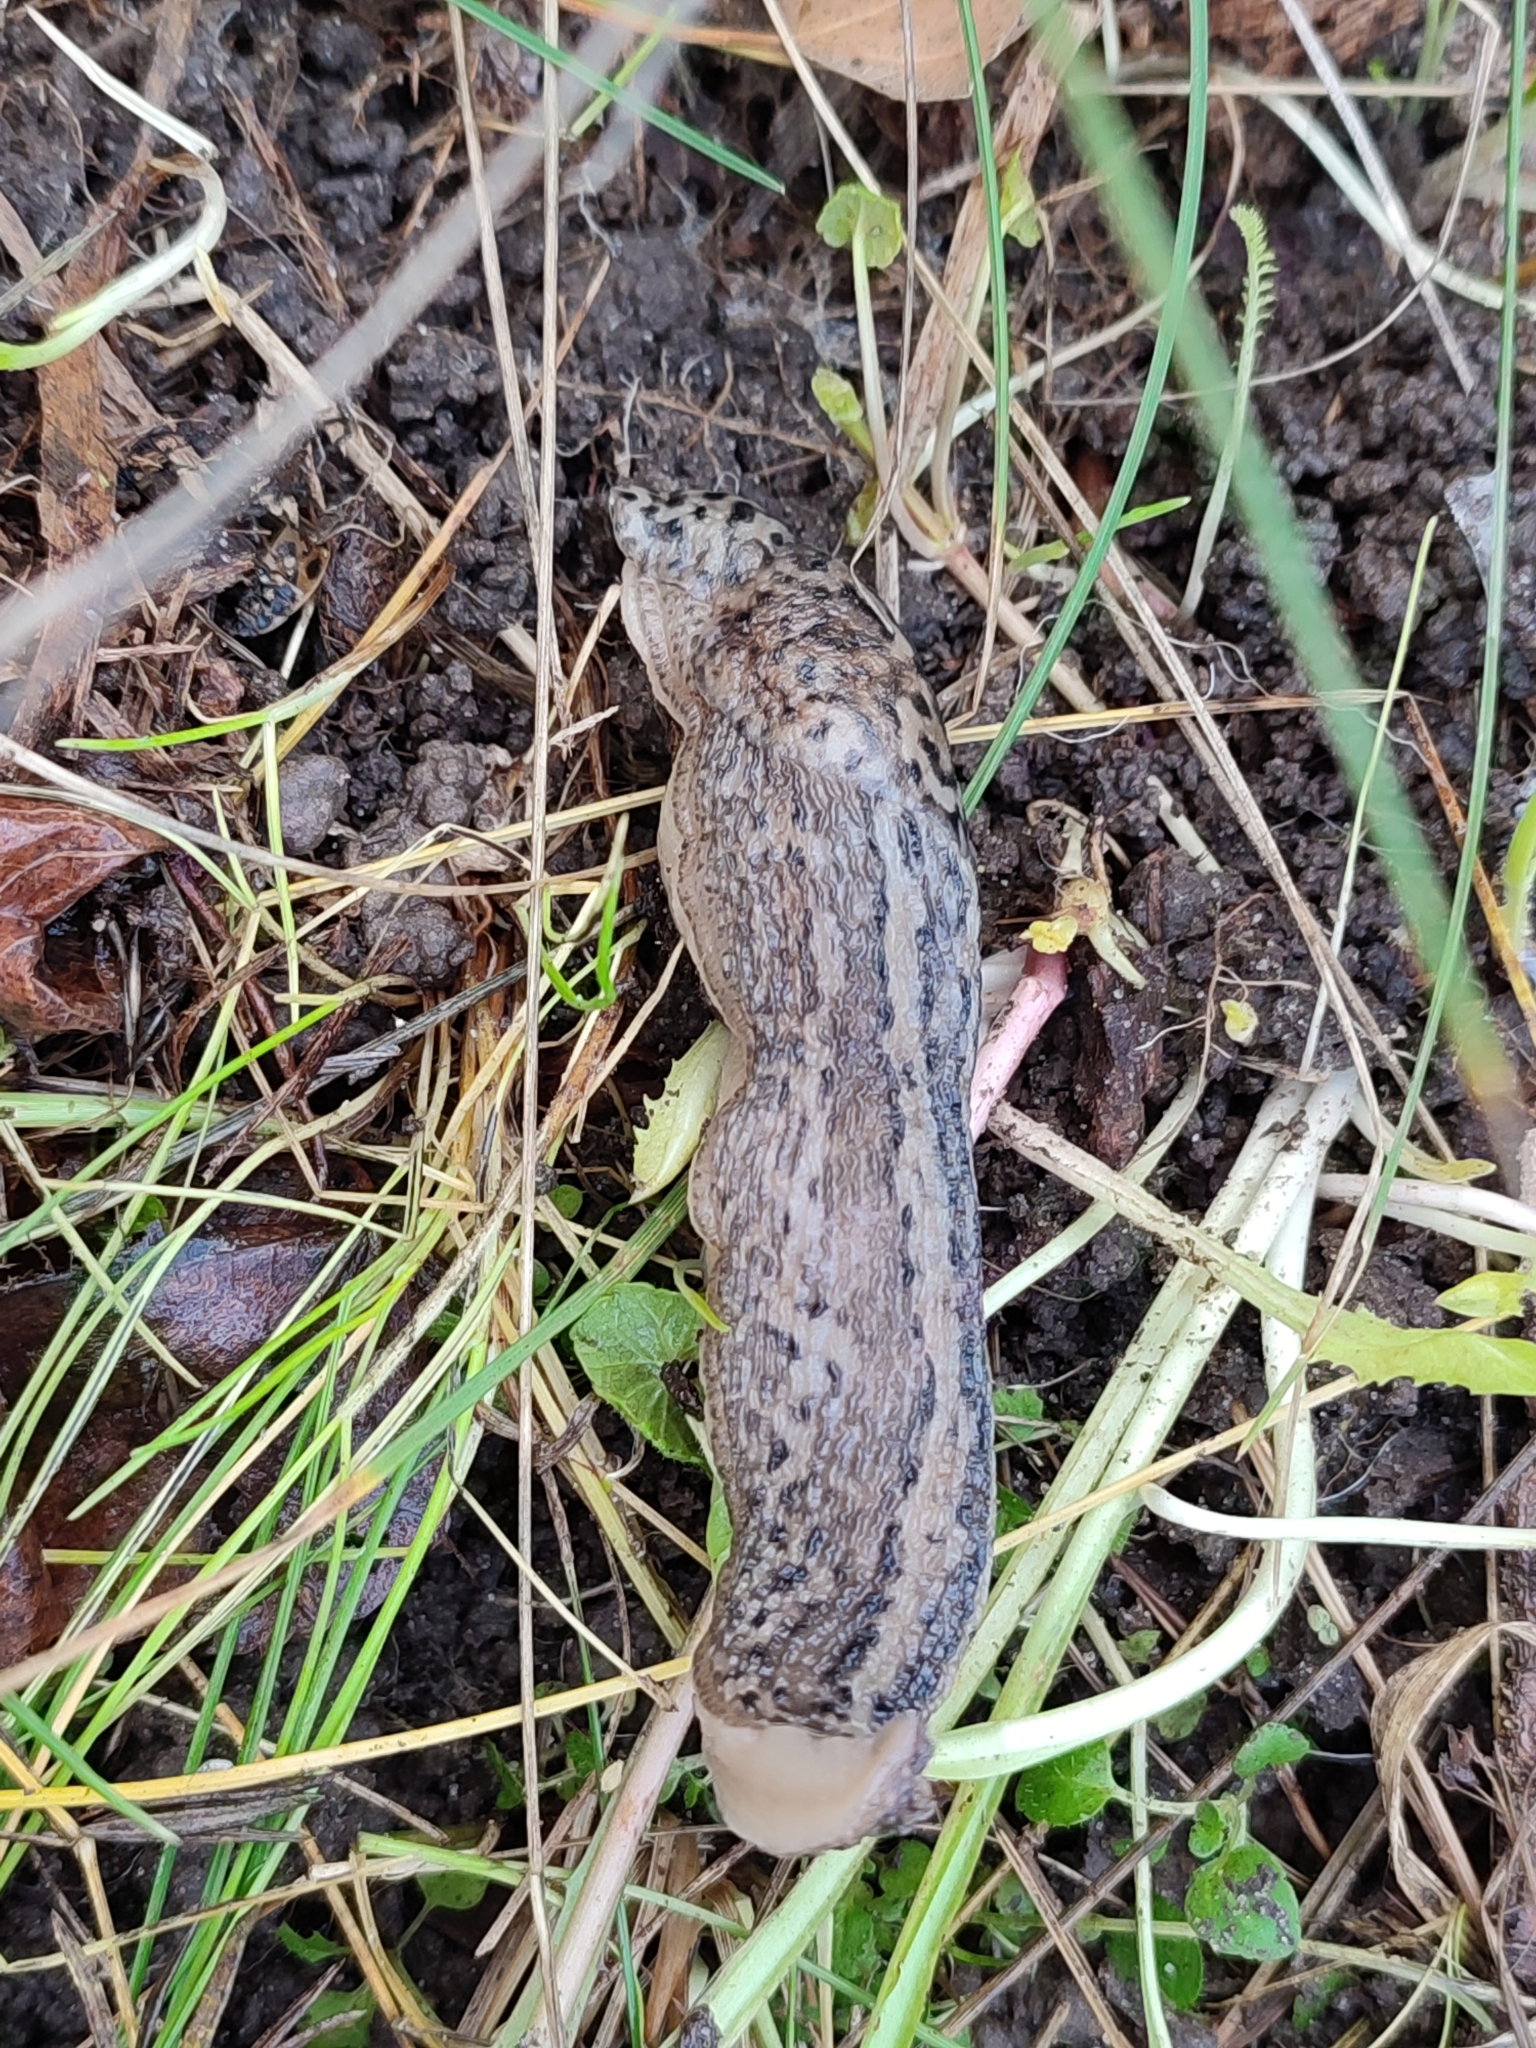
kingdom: Animalia
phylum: Mollusca
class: Gastropoda
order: Stylommatophora
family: Limacidae
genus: Limax
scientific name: Limax maximus
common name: Great grey slug
